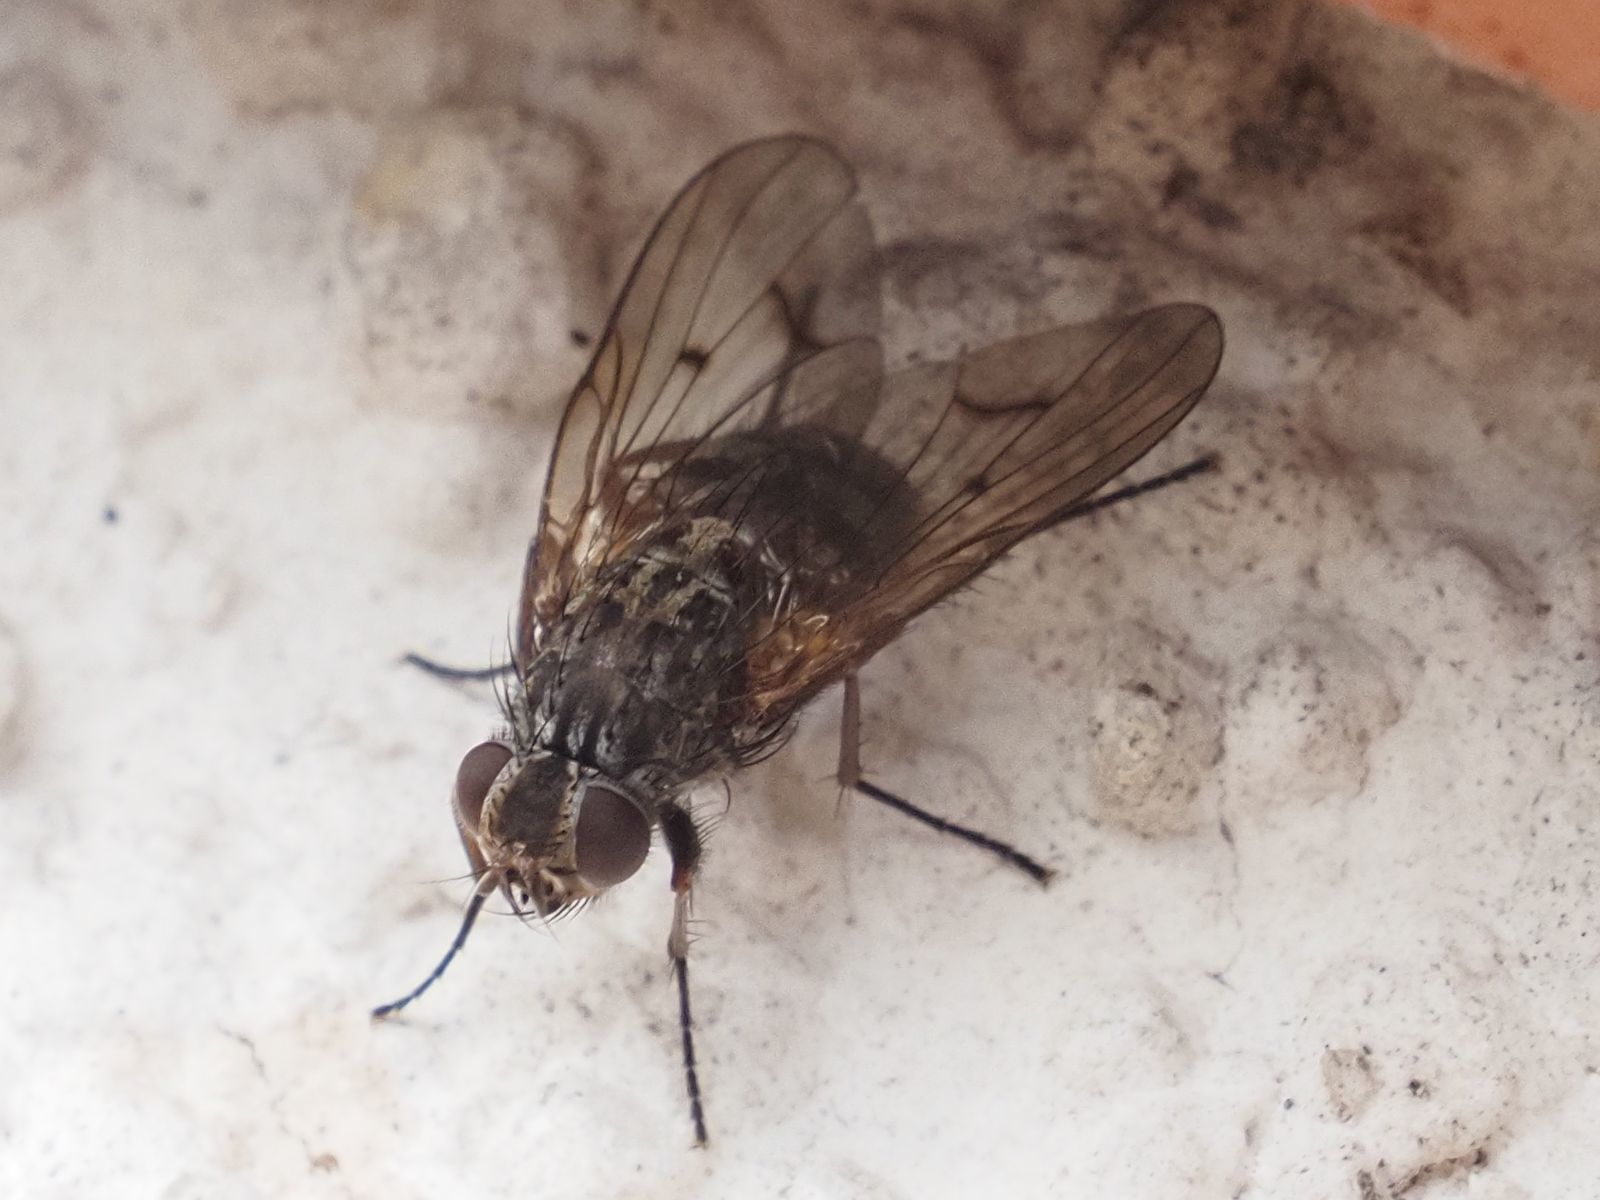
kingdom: Animalia
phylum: Arthropoda
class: Insecta
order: Diptera
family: Muscidae
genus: Phaonia
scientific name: Phaonia tuguriorum
